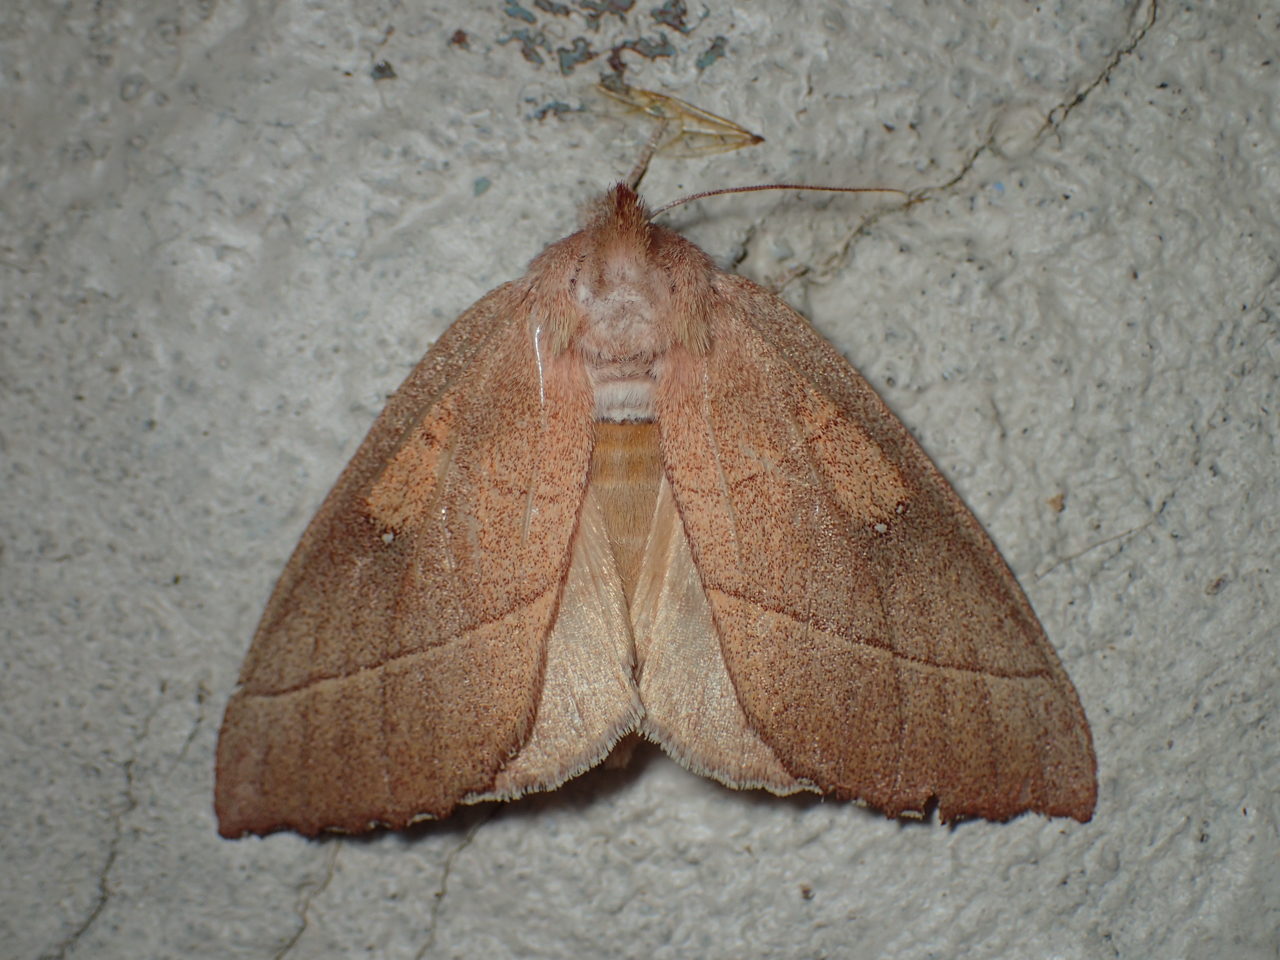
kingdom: Animalia
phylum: Arthropoda
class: Insecta
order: Lepidoptera
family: Notodontidae
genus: Nadata
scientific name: Nadata gibbosa
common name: White-dotted prominent
